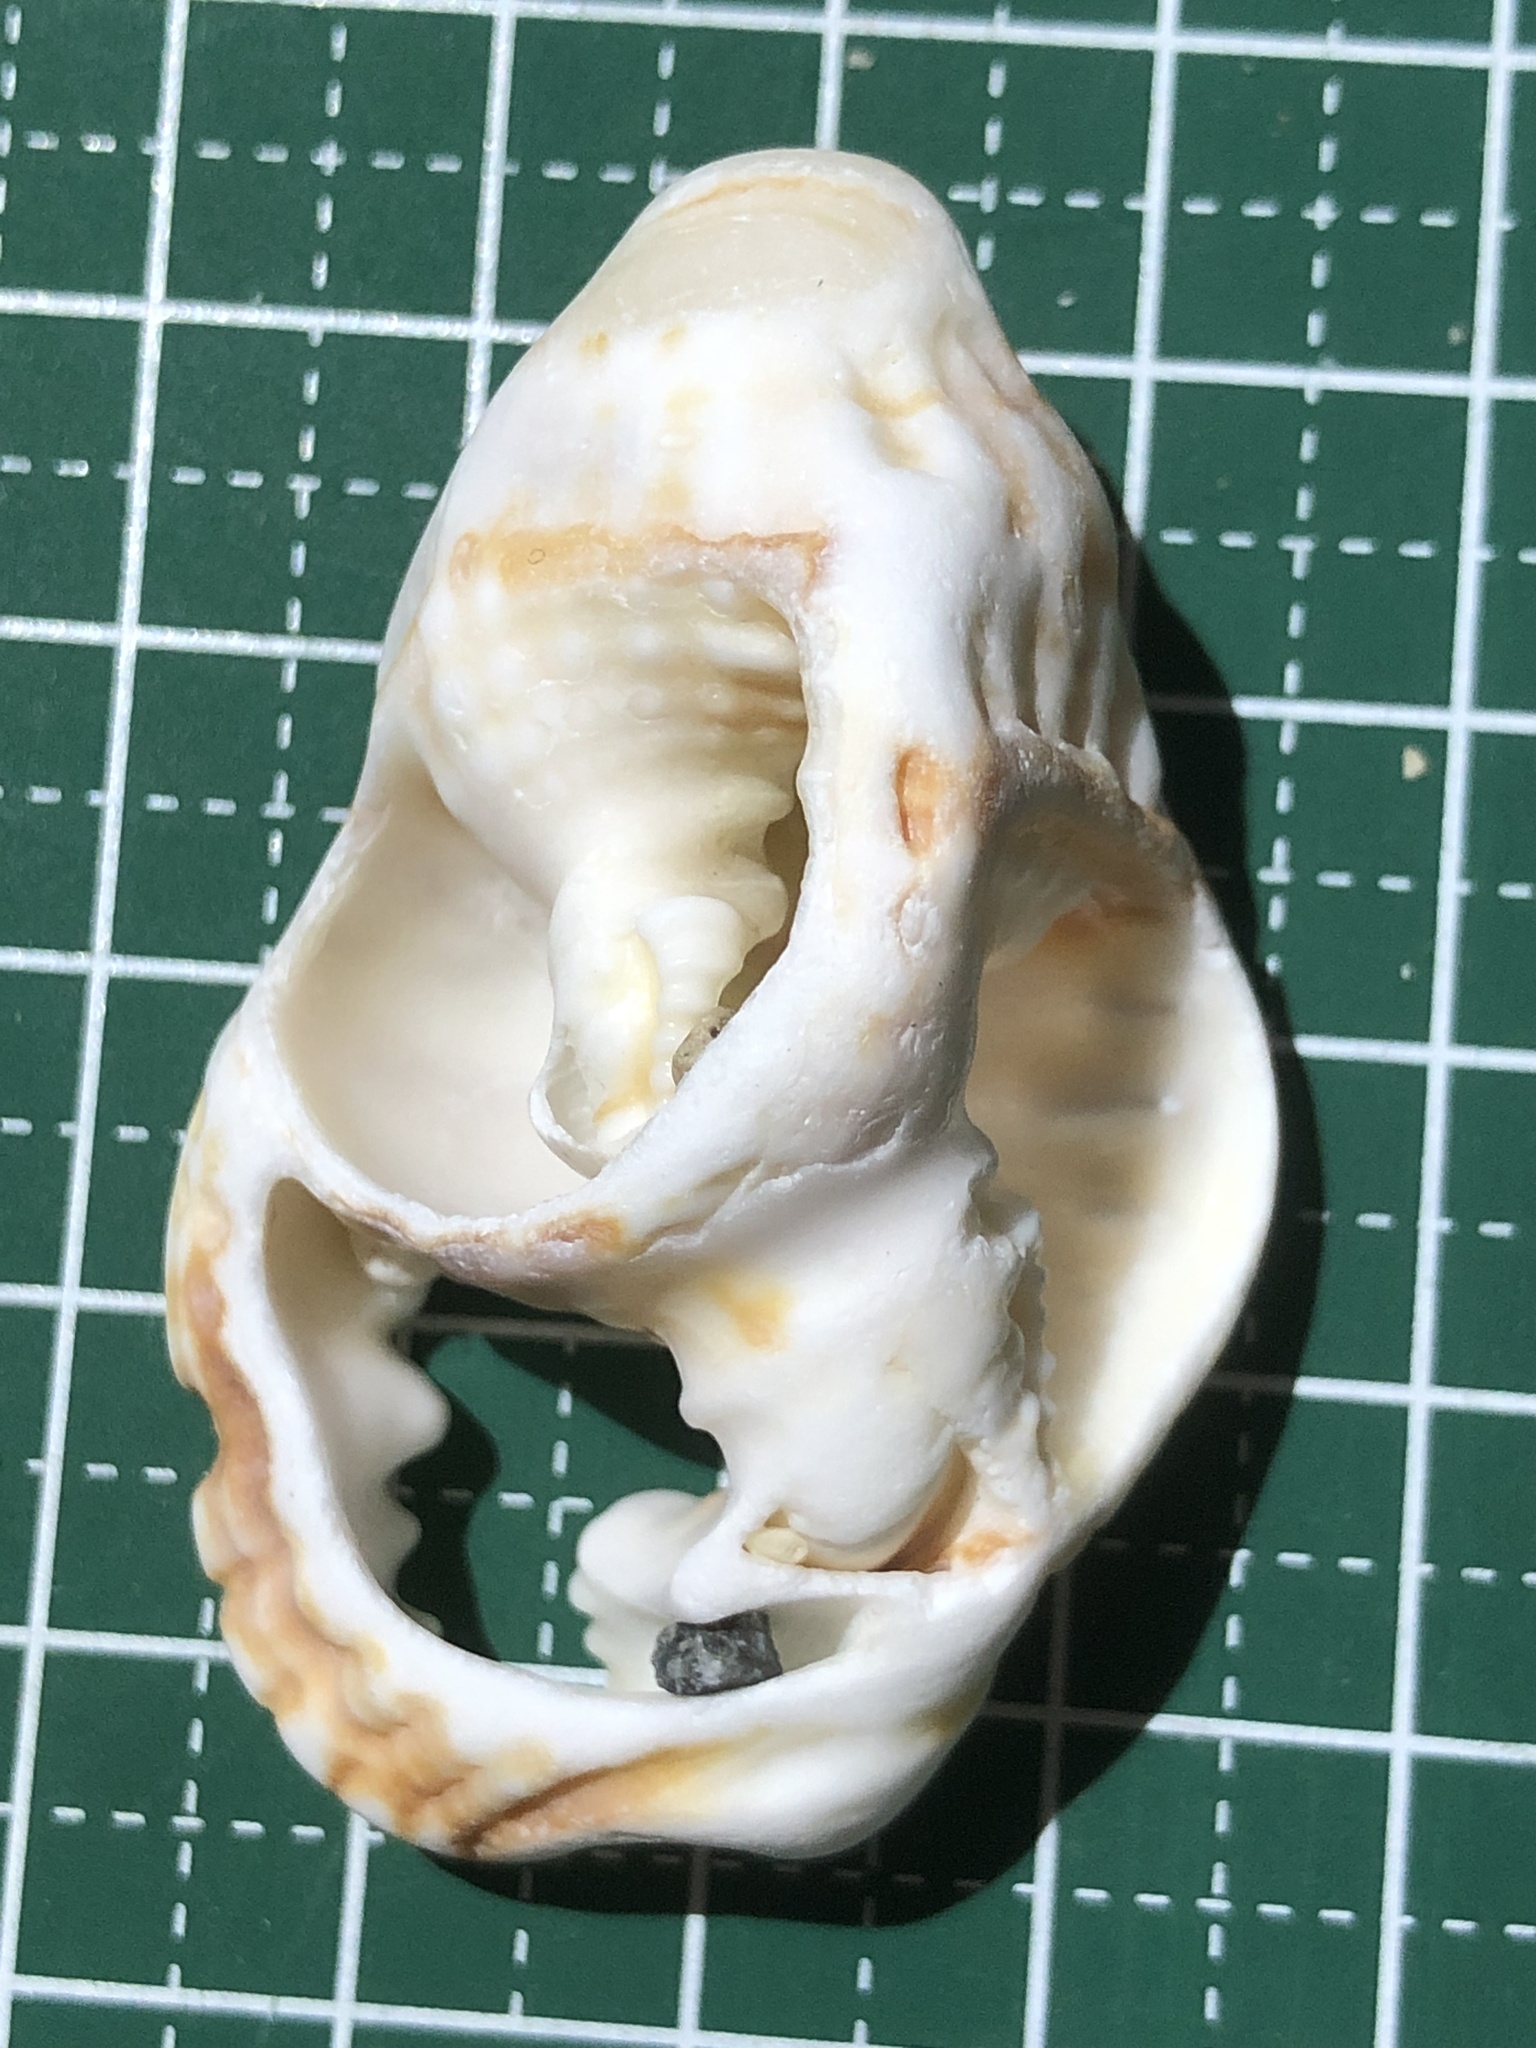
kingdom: Animalia
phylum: Mollusca
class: Gastropoda
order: Littorinimorpha
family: Personidae
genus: Distorsio
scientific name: Distorsio anus
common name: Common distorsio
